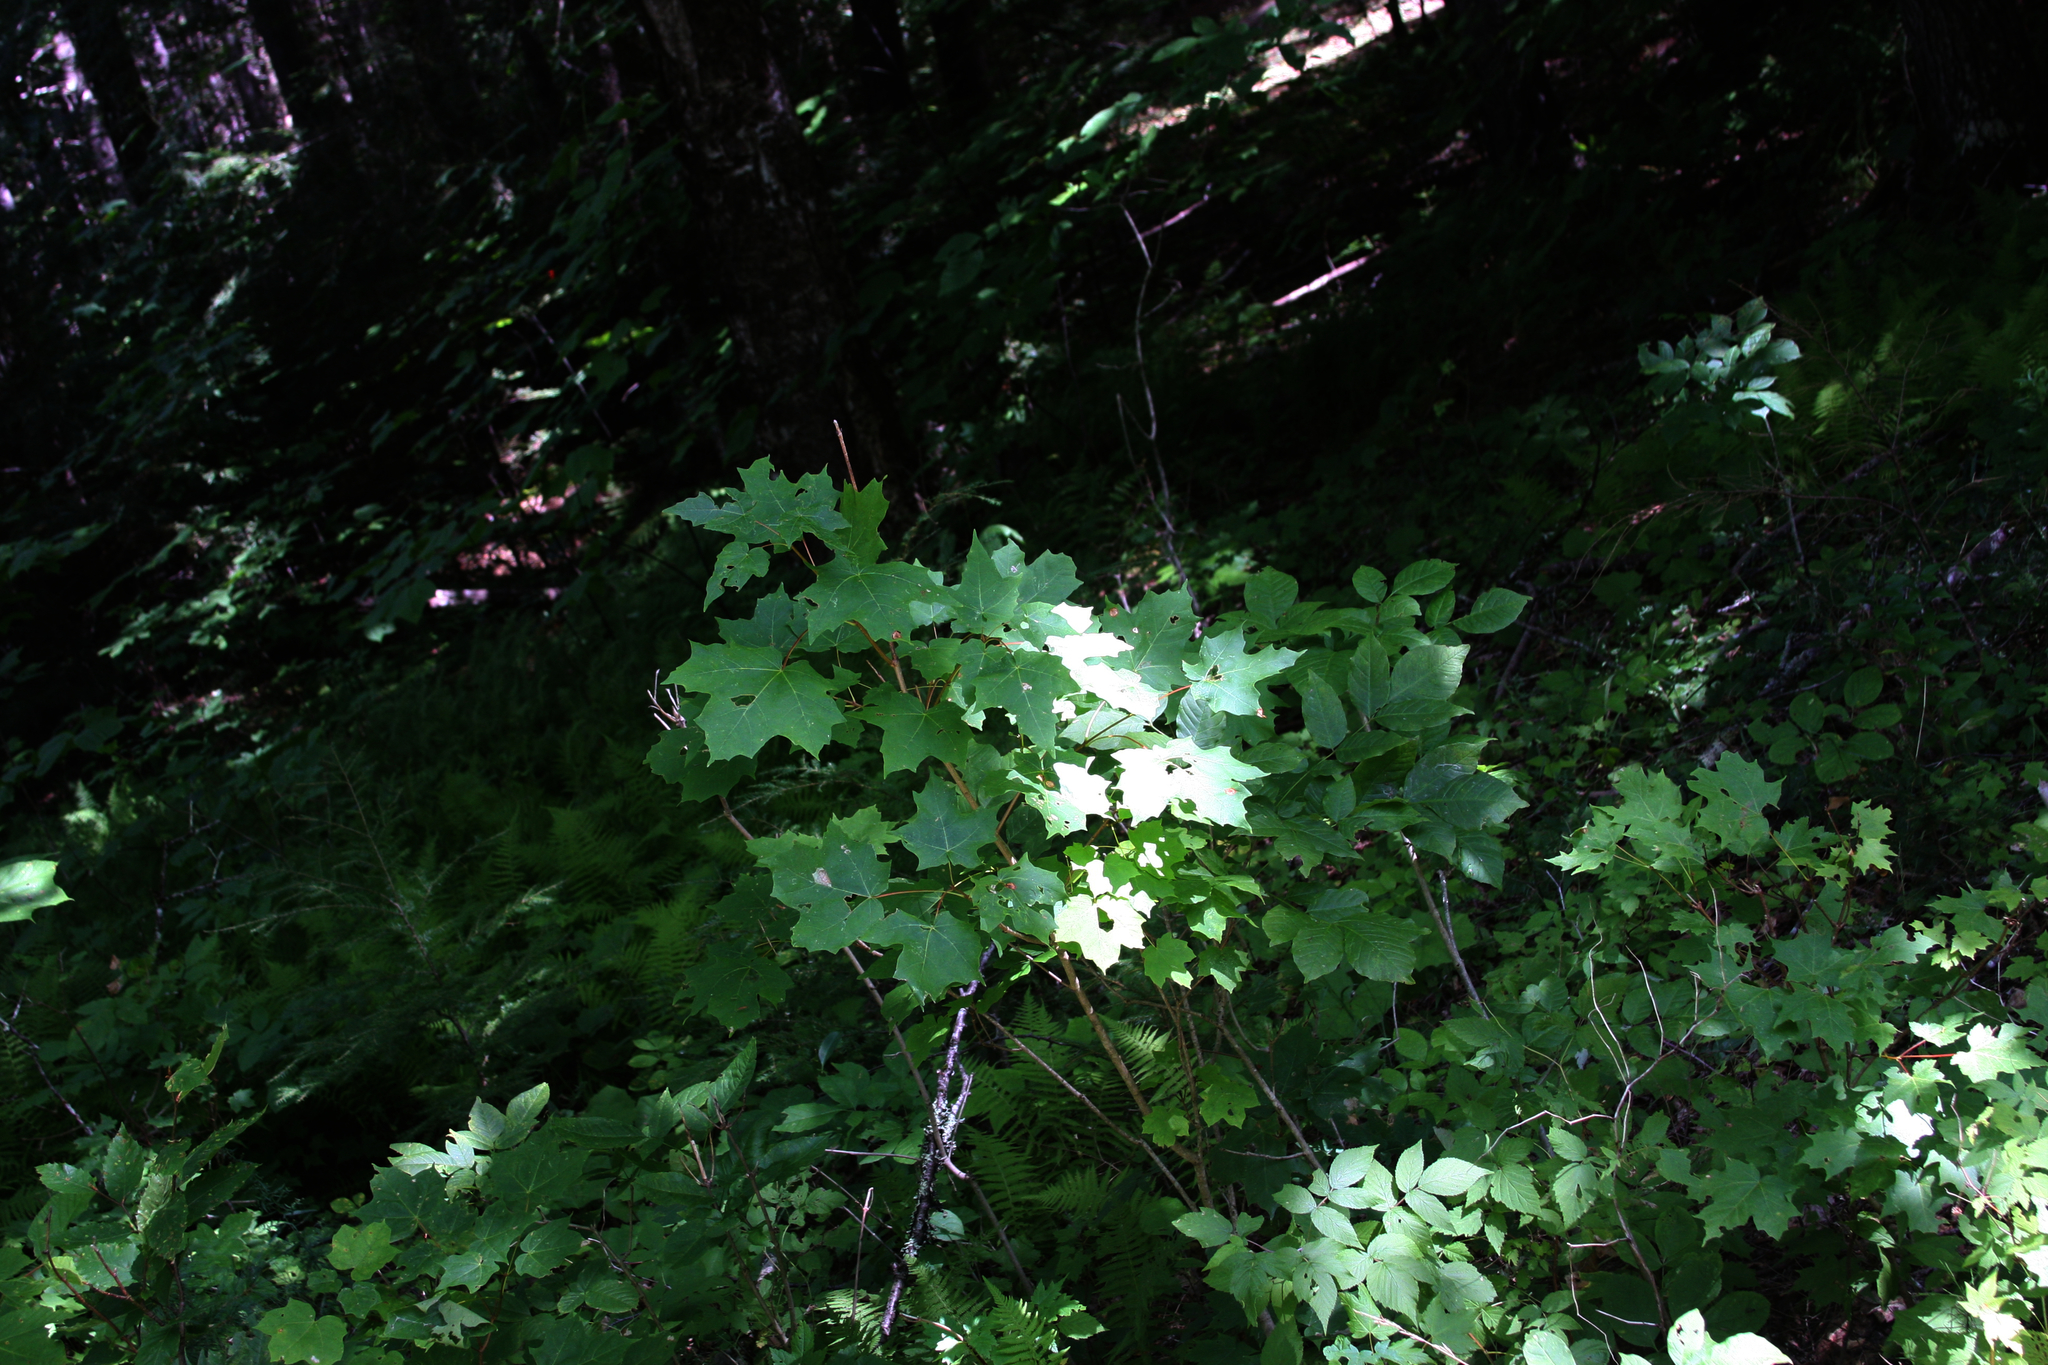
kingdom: Plantae
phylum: Tracheophyta
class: Magnoliopsida
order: Sapindales
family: Sapindaceae
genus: Acer
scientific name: Acer saccharum
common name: Sugar maple
